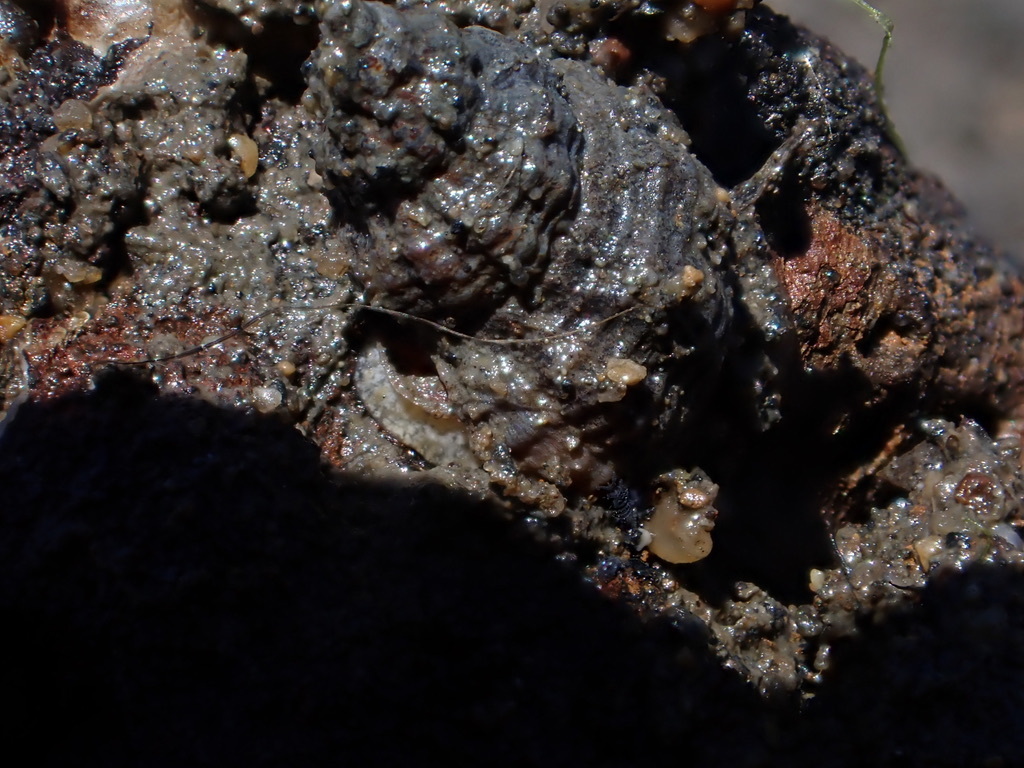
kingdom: Animalia
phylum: Mollusca
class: Gastropoda
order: Neogastropoda
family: Muricidae
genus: Urosalpinx
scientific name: Urosalpinx cinerea
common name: American sting winkle
